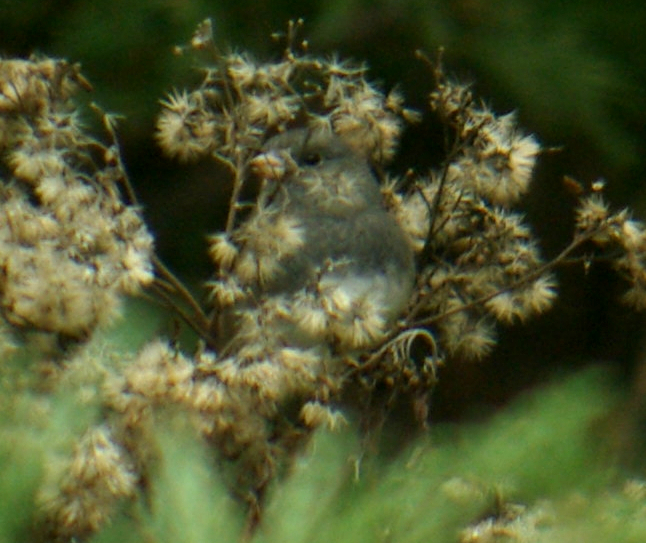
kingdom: Animalia
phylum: Chordata
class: Aves
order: Passeriformes
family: Passerellidae
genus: Junco
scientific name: Junco hyemalis
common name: Dark-eyed junco
